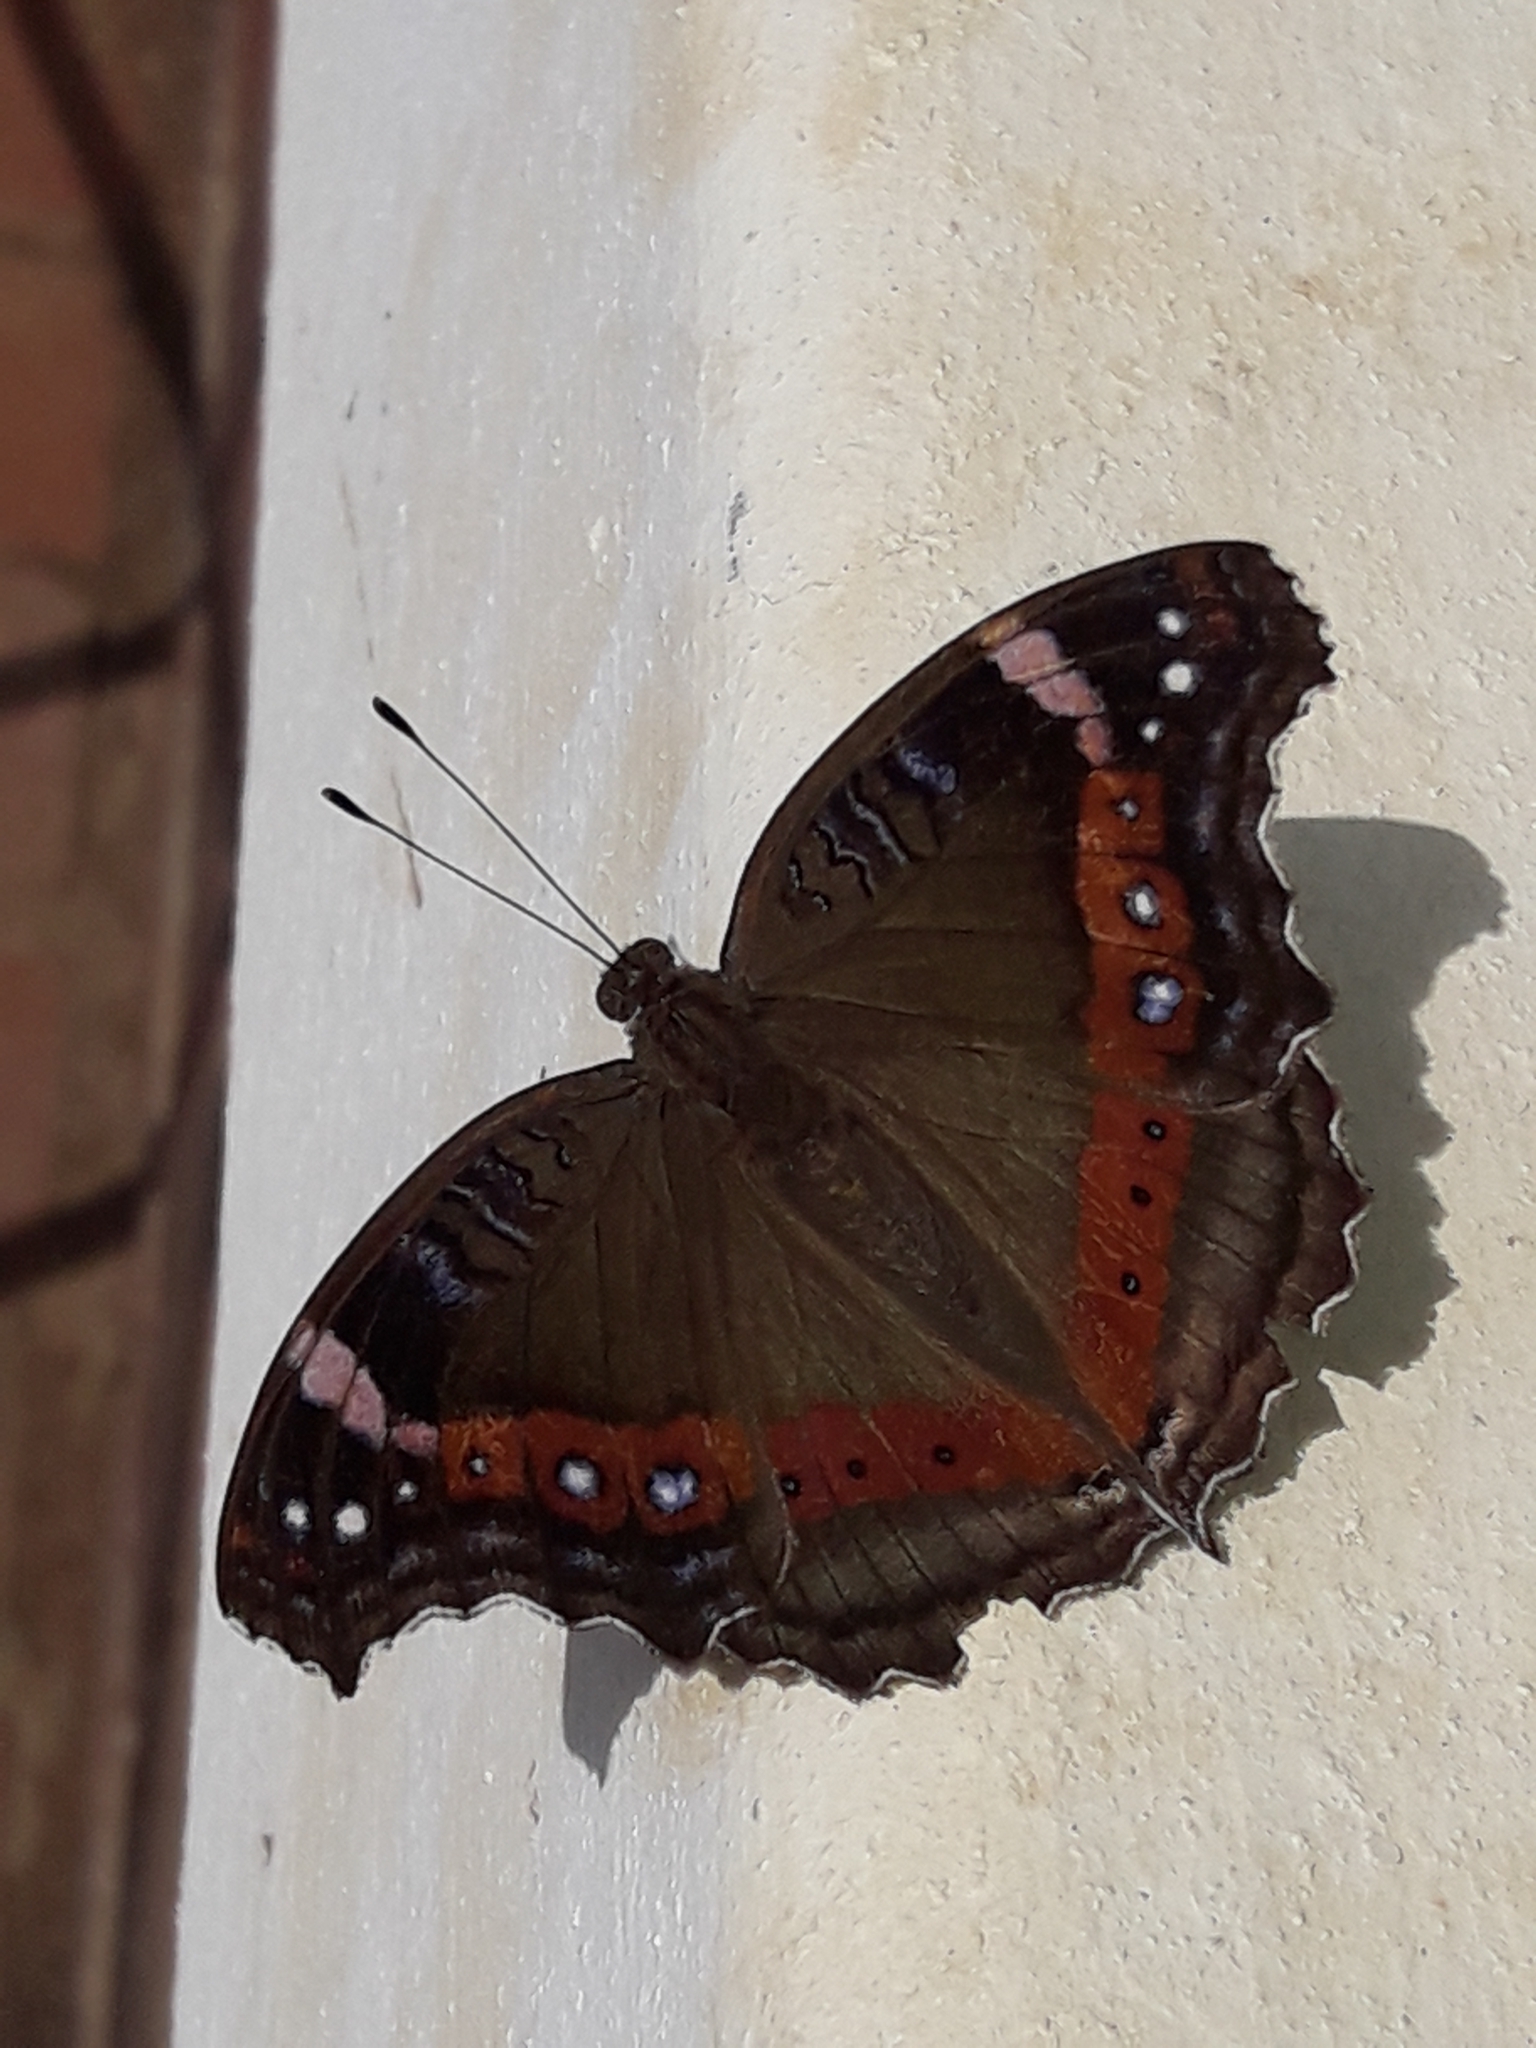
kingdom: Animalia
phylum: Arthropoda
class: Insecta
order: Lepidoptera
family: Nymphalidae
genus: Junonia
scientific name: Junonia archesia
